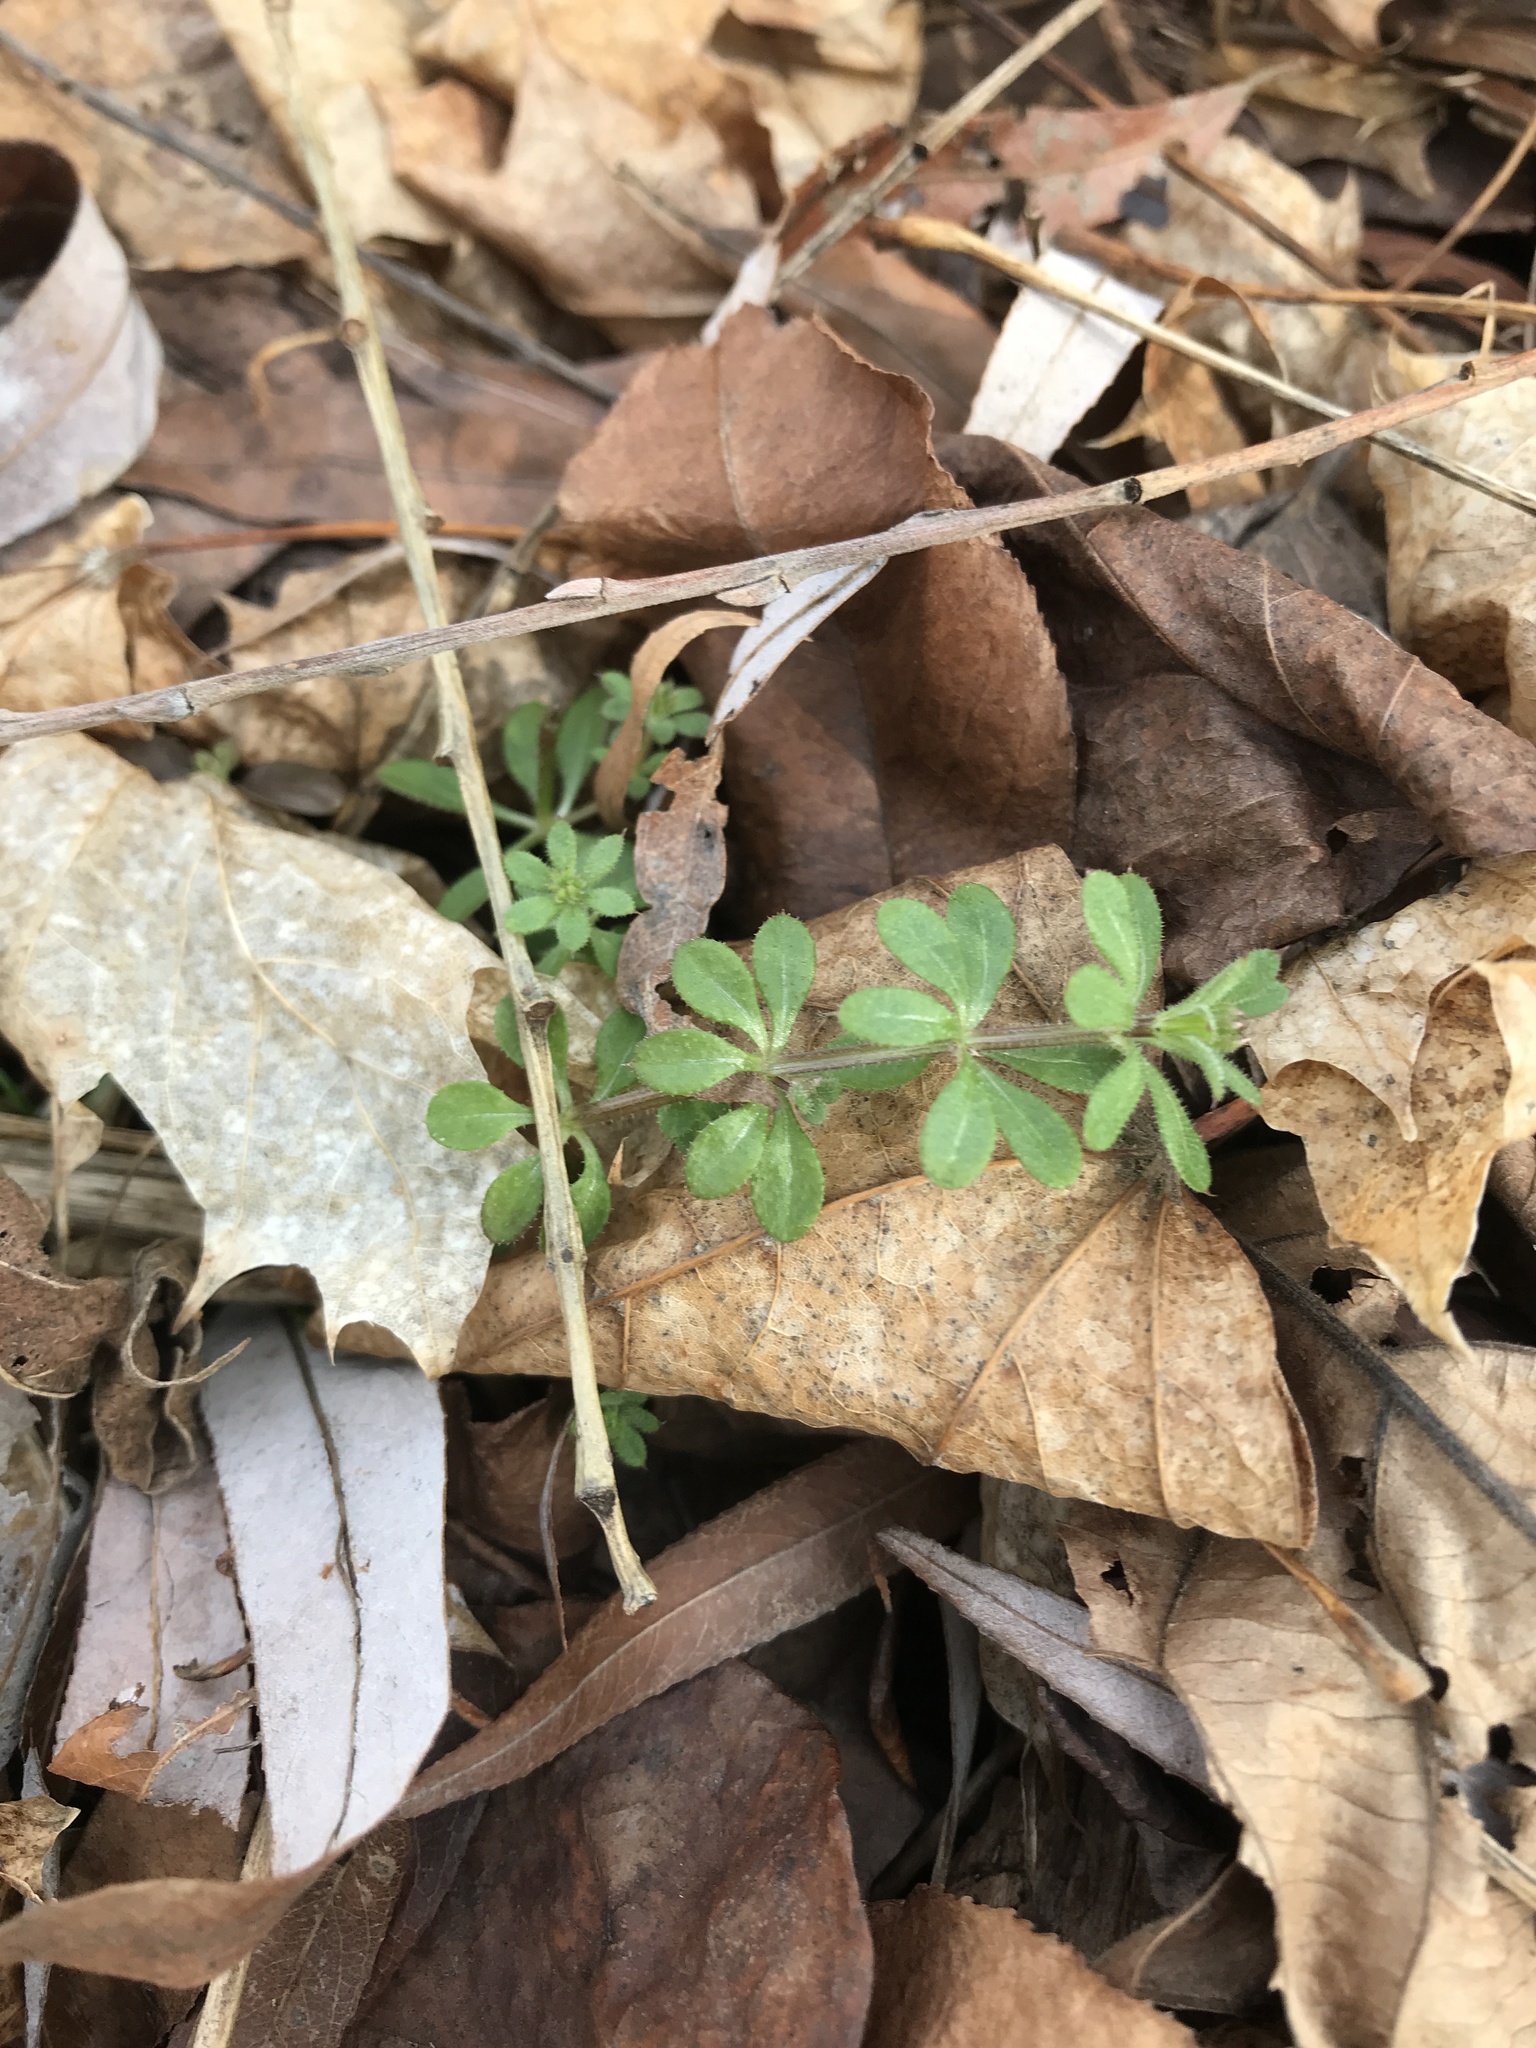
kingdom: Plantae
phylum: Tracheophyta
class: Magnoliopsida
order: Gentianales
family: Rubiaceae
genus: Galium
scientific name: Galium aparine
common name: Cleavers
